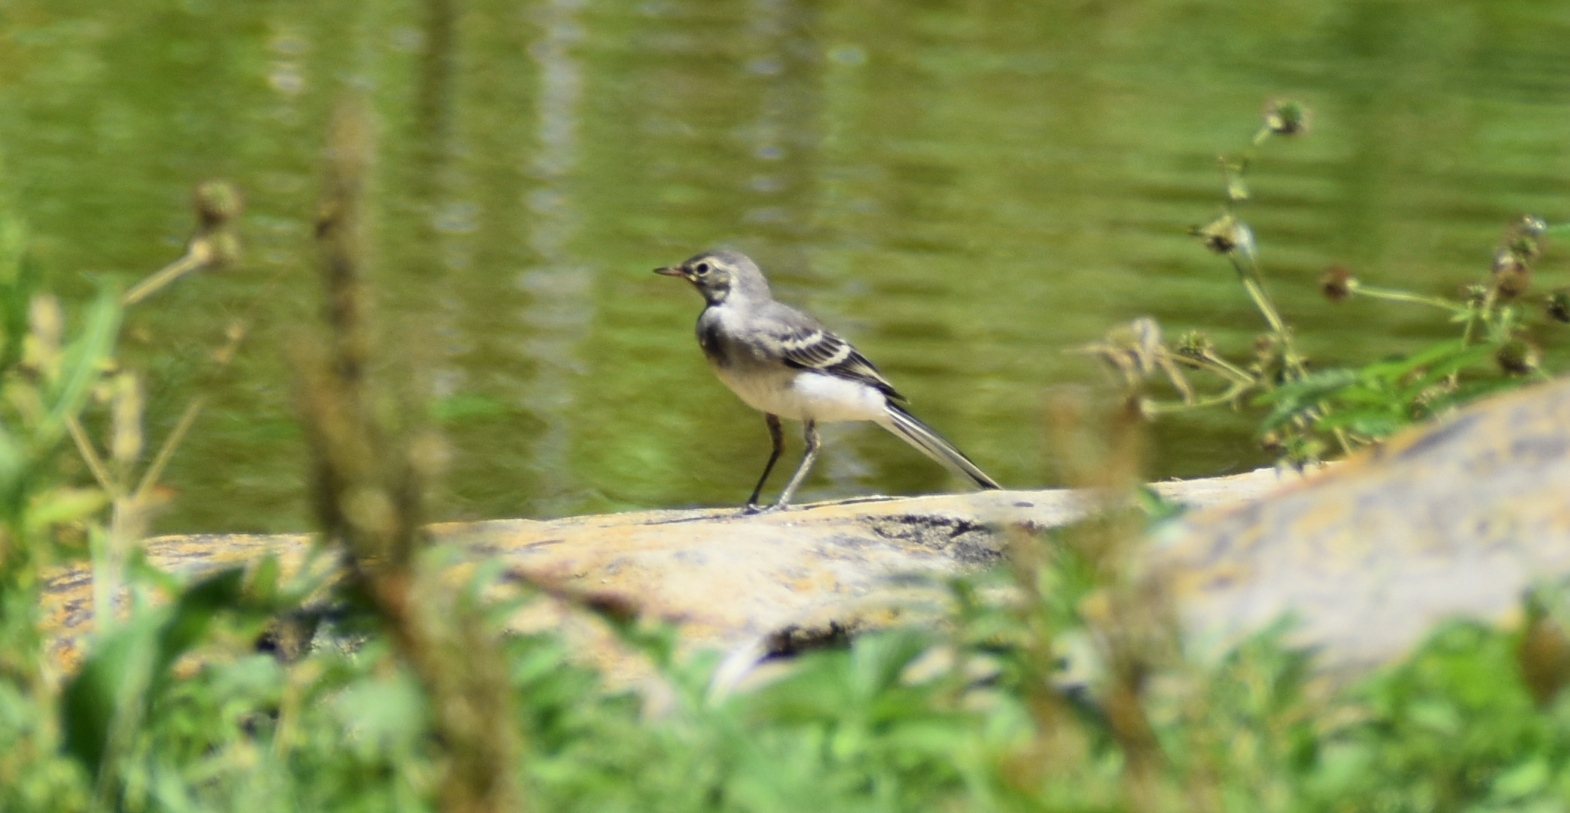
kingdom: Animalia
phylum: Chordata
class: Aves
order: Passeriformes
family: Motacillidae
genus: Motacilla
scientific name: Motacilla alba
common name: White wagtail
